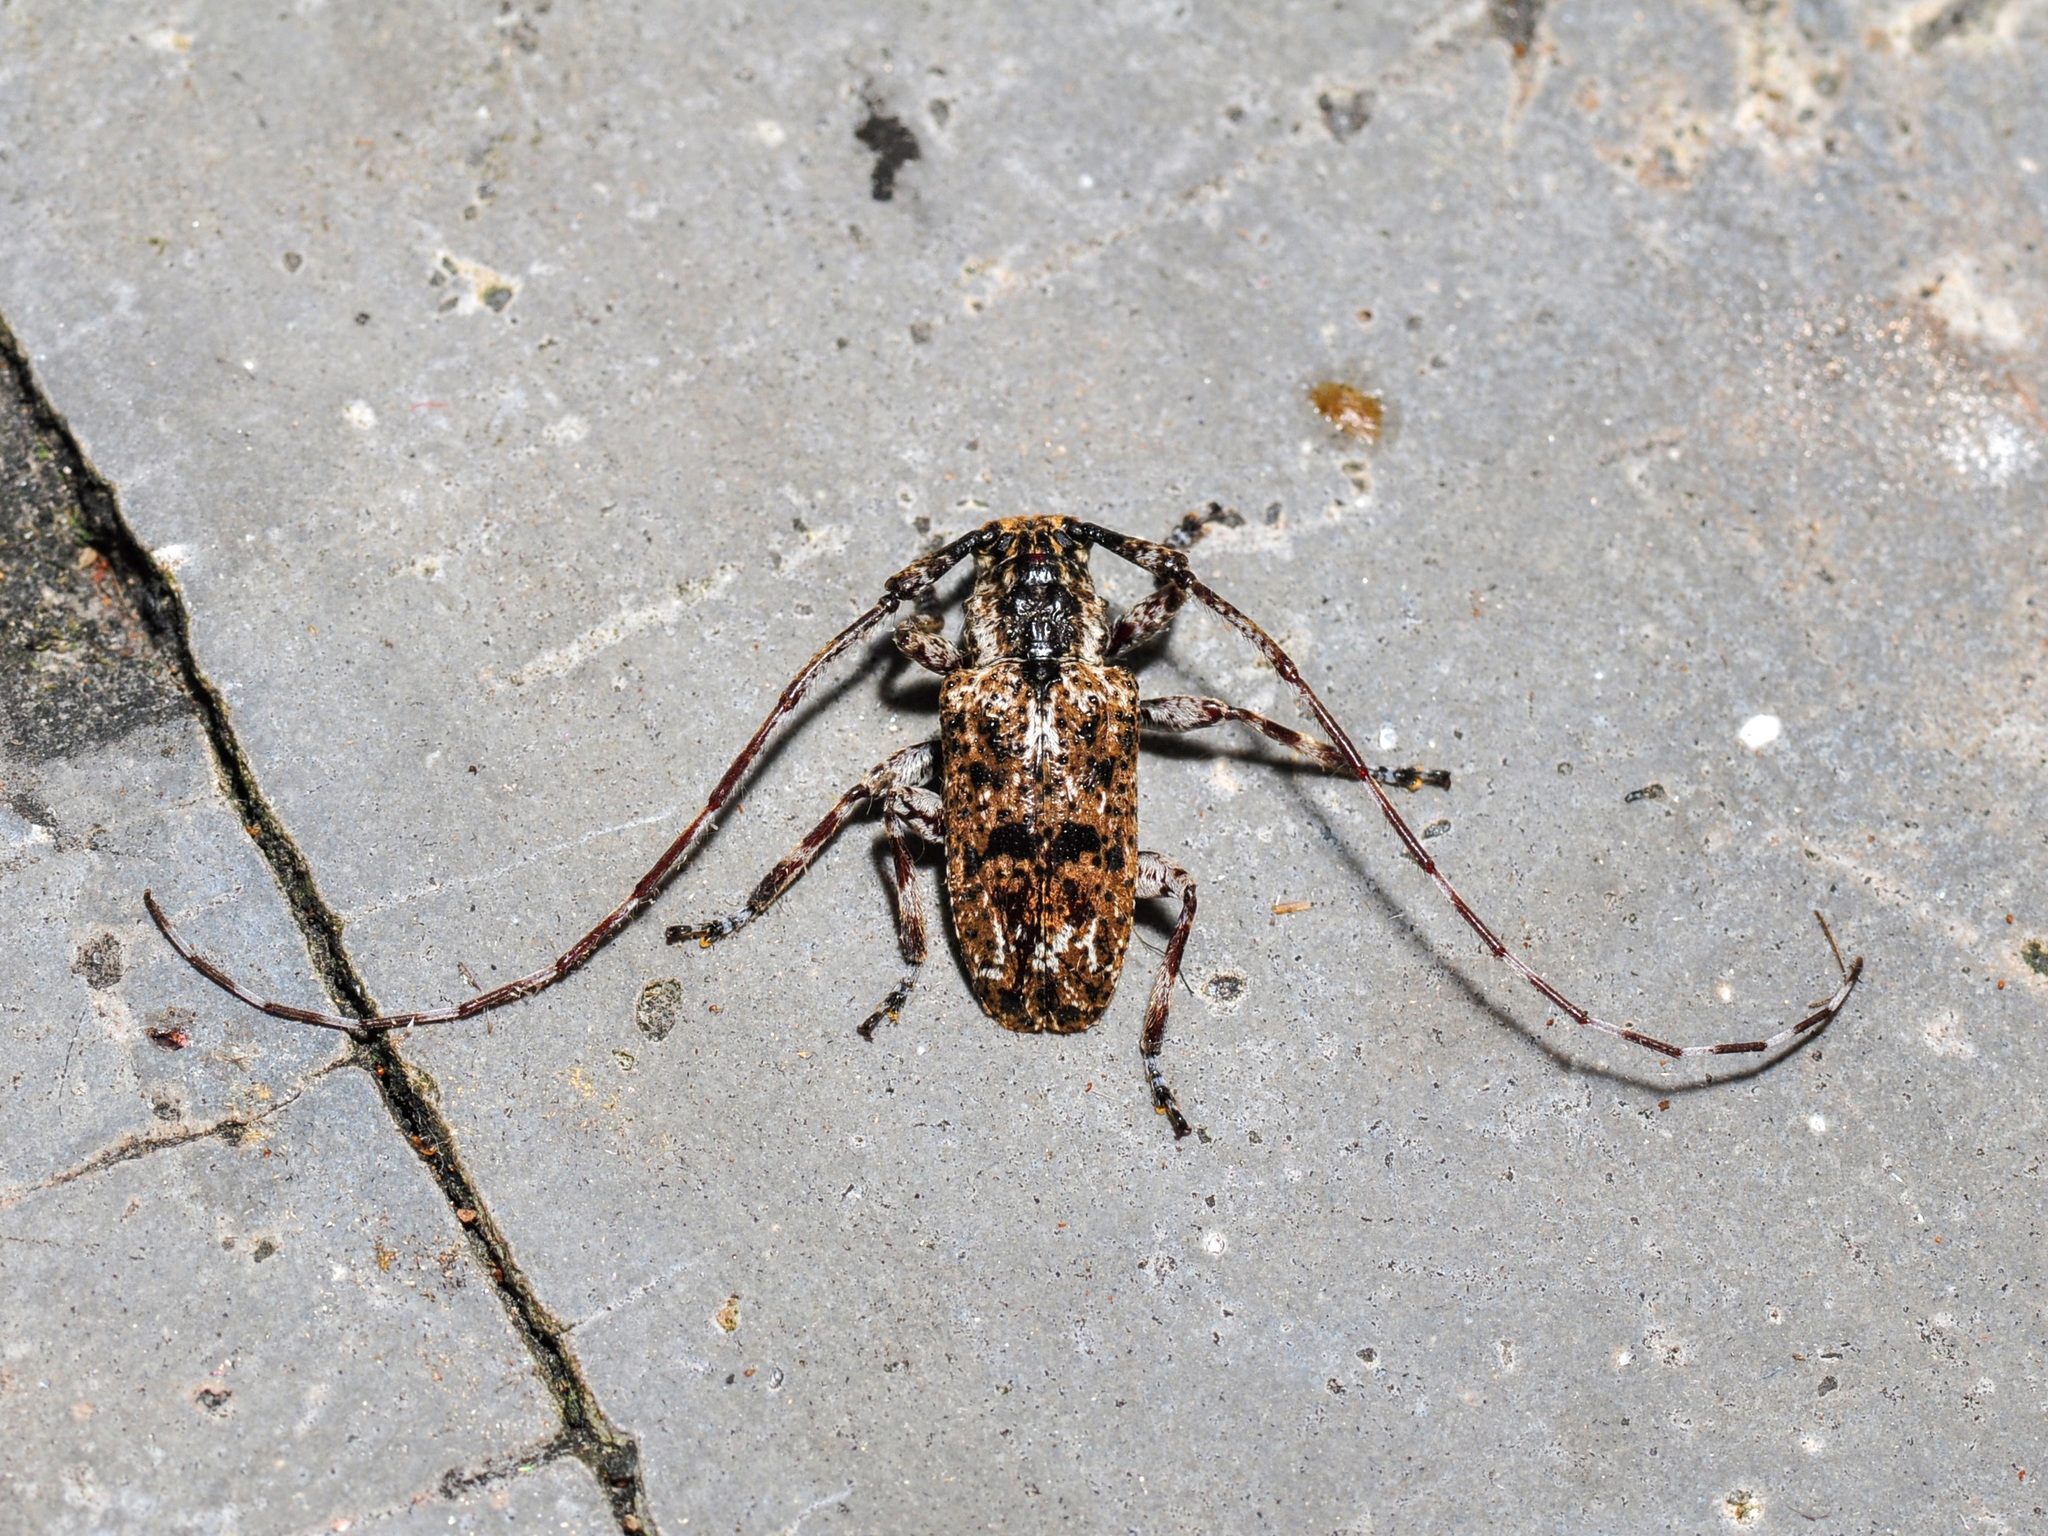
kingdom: Animalia
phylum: Arthropoda
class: Insecta
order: Coleoptera
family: Cerambycidae
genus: Mutatocoptops
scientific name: Mutatocoptops malaisiana
